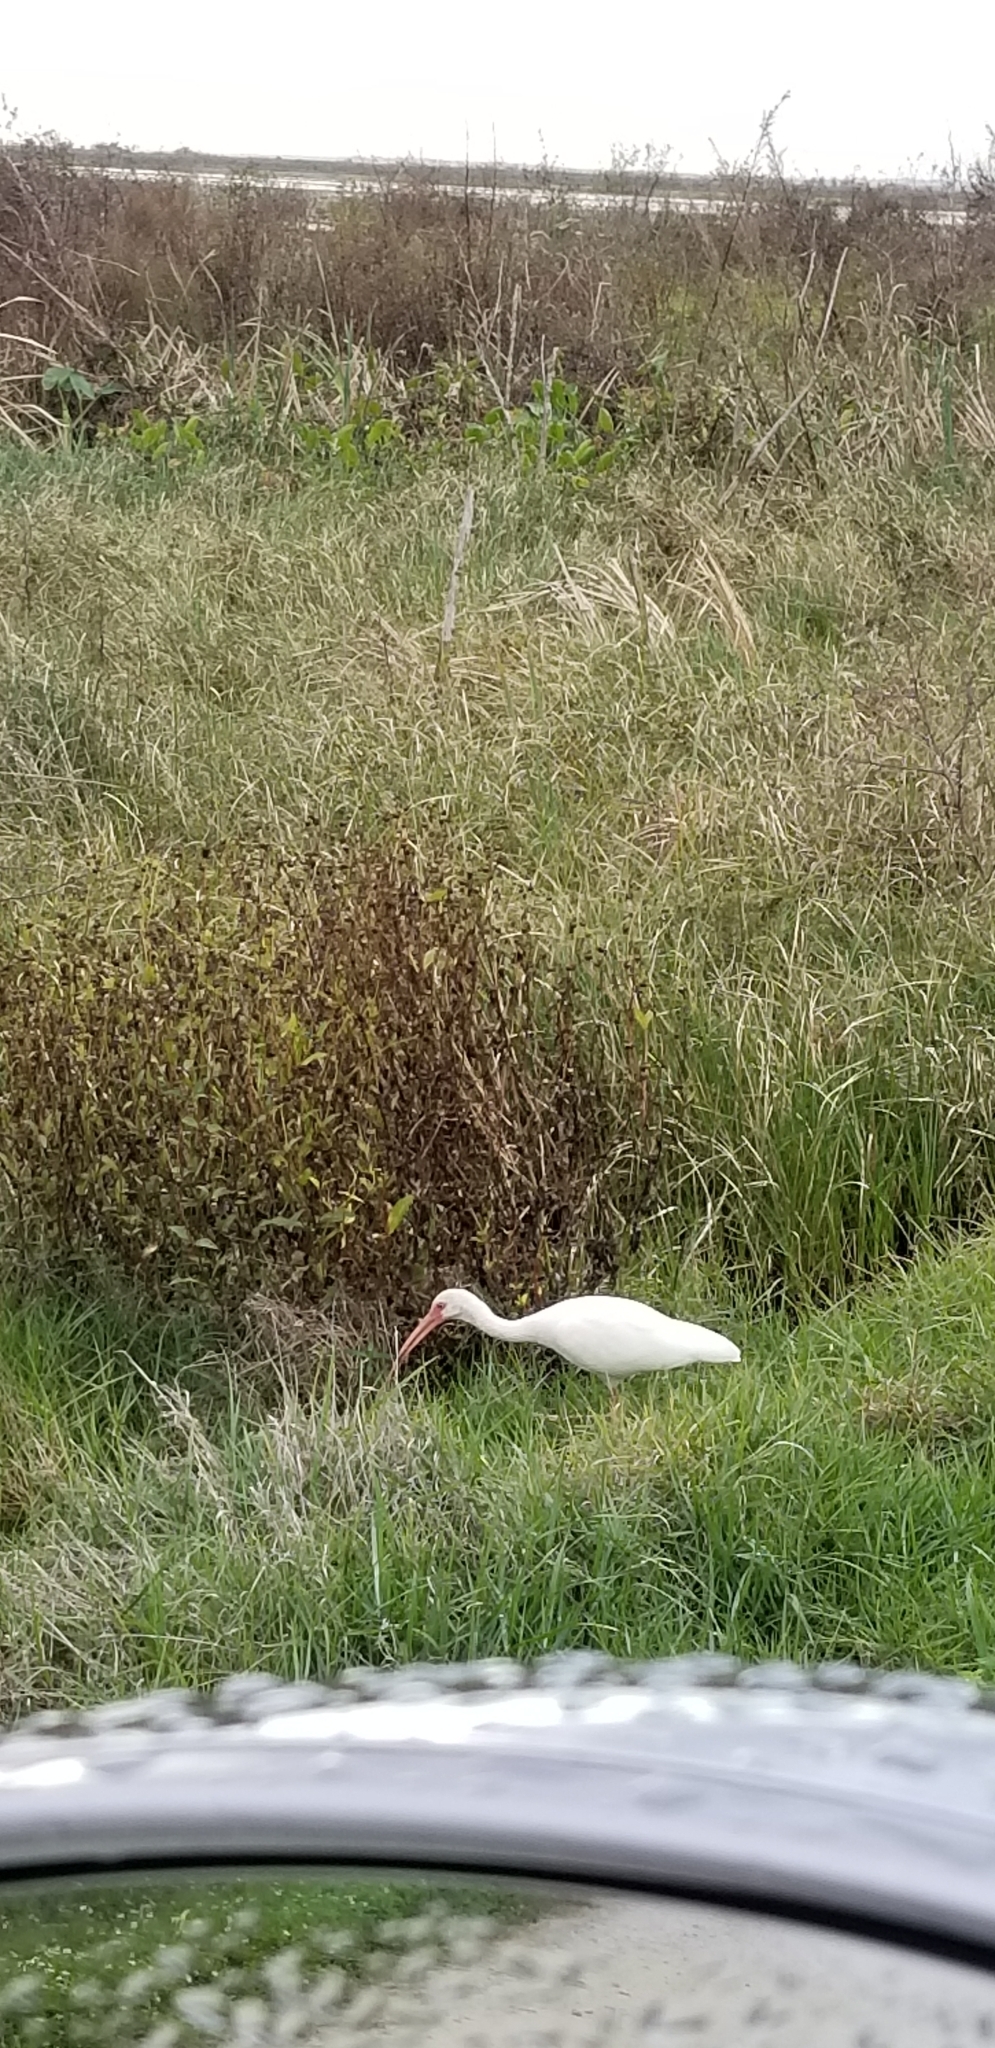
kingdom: Animalia
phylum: Chordata
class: Aves
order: Pelecaniformes
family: Threskiornithidae
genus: Eudocimus
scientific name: Eudocimus albus
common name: White ibis
